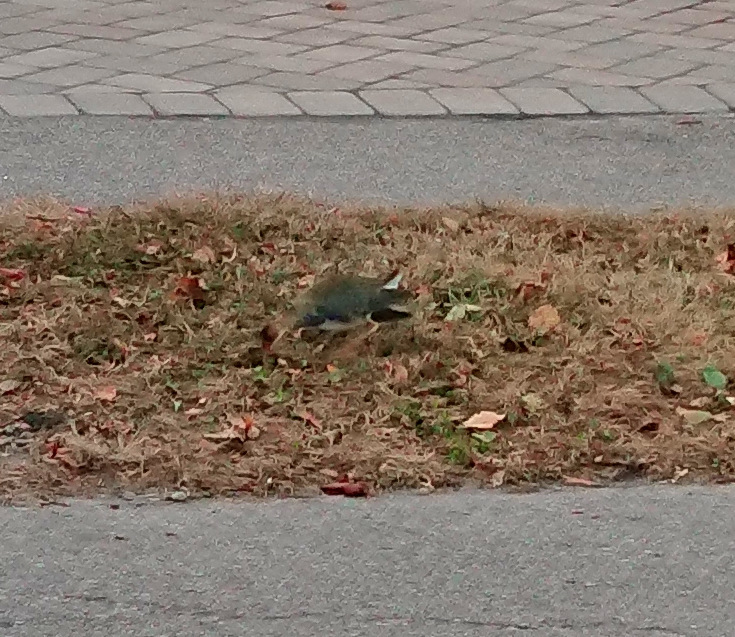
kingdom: Animalia
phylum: Chordata
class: Aves
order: Gruiformes
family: Rallidae
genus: Porphyrio
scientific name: Porphyrio martinica
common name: Purple gallinule
